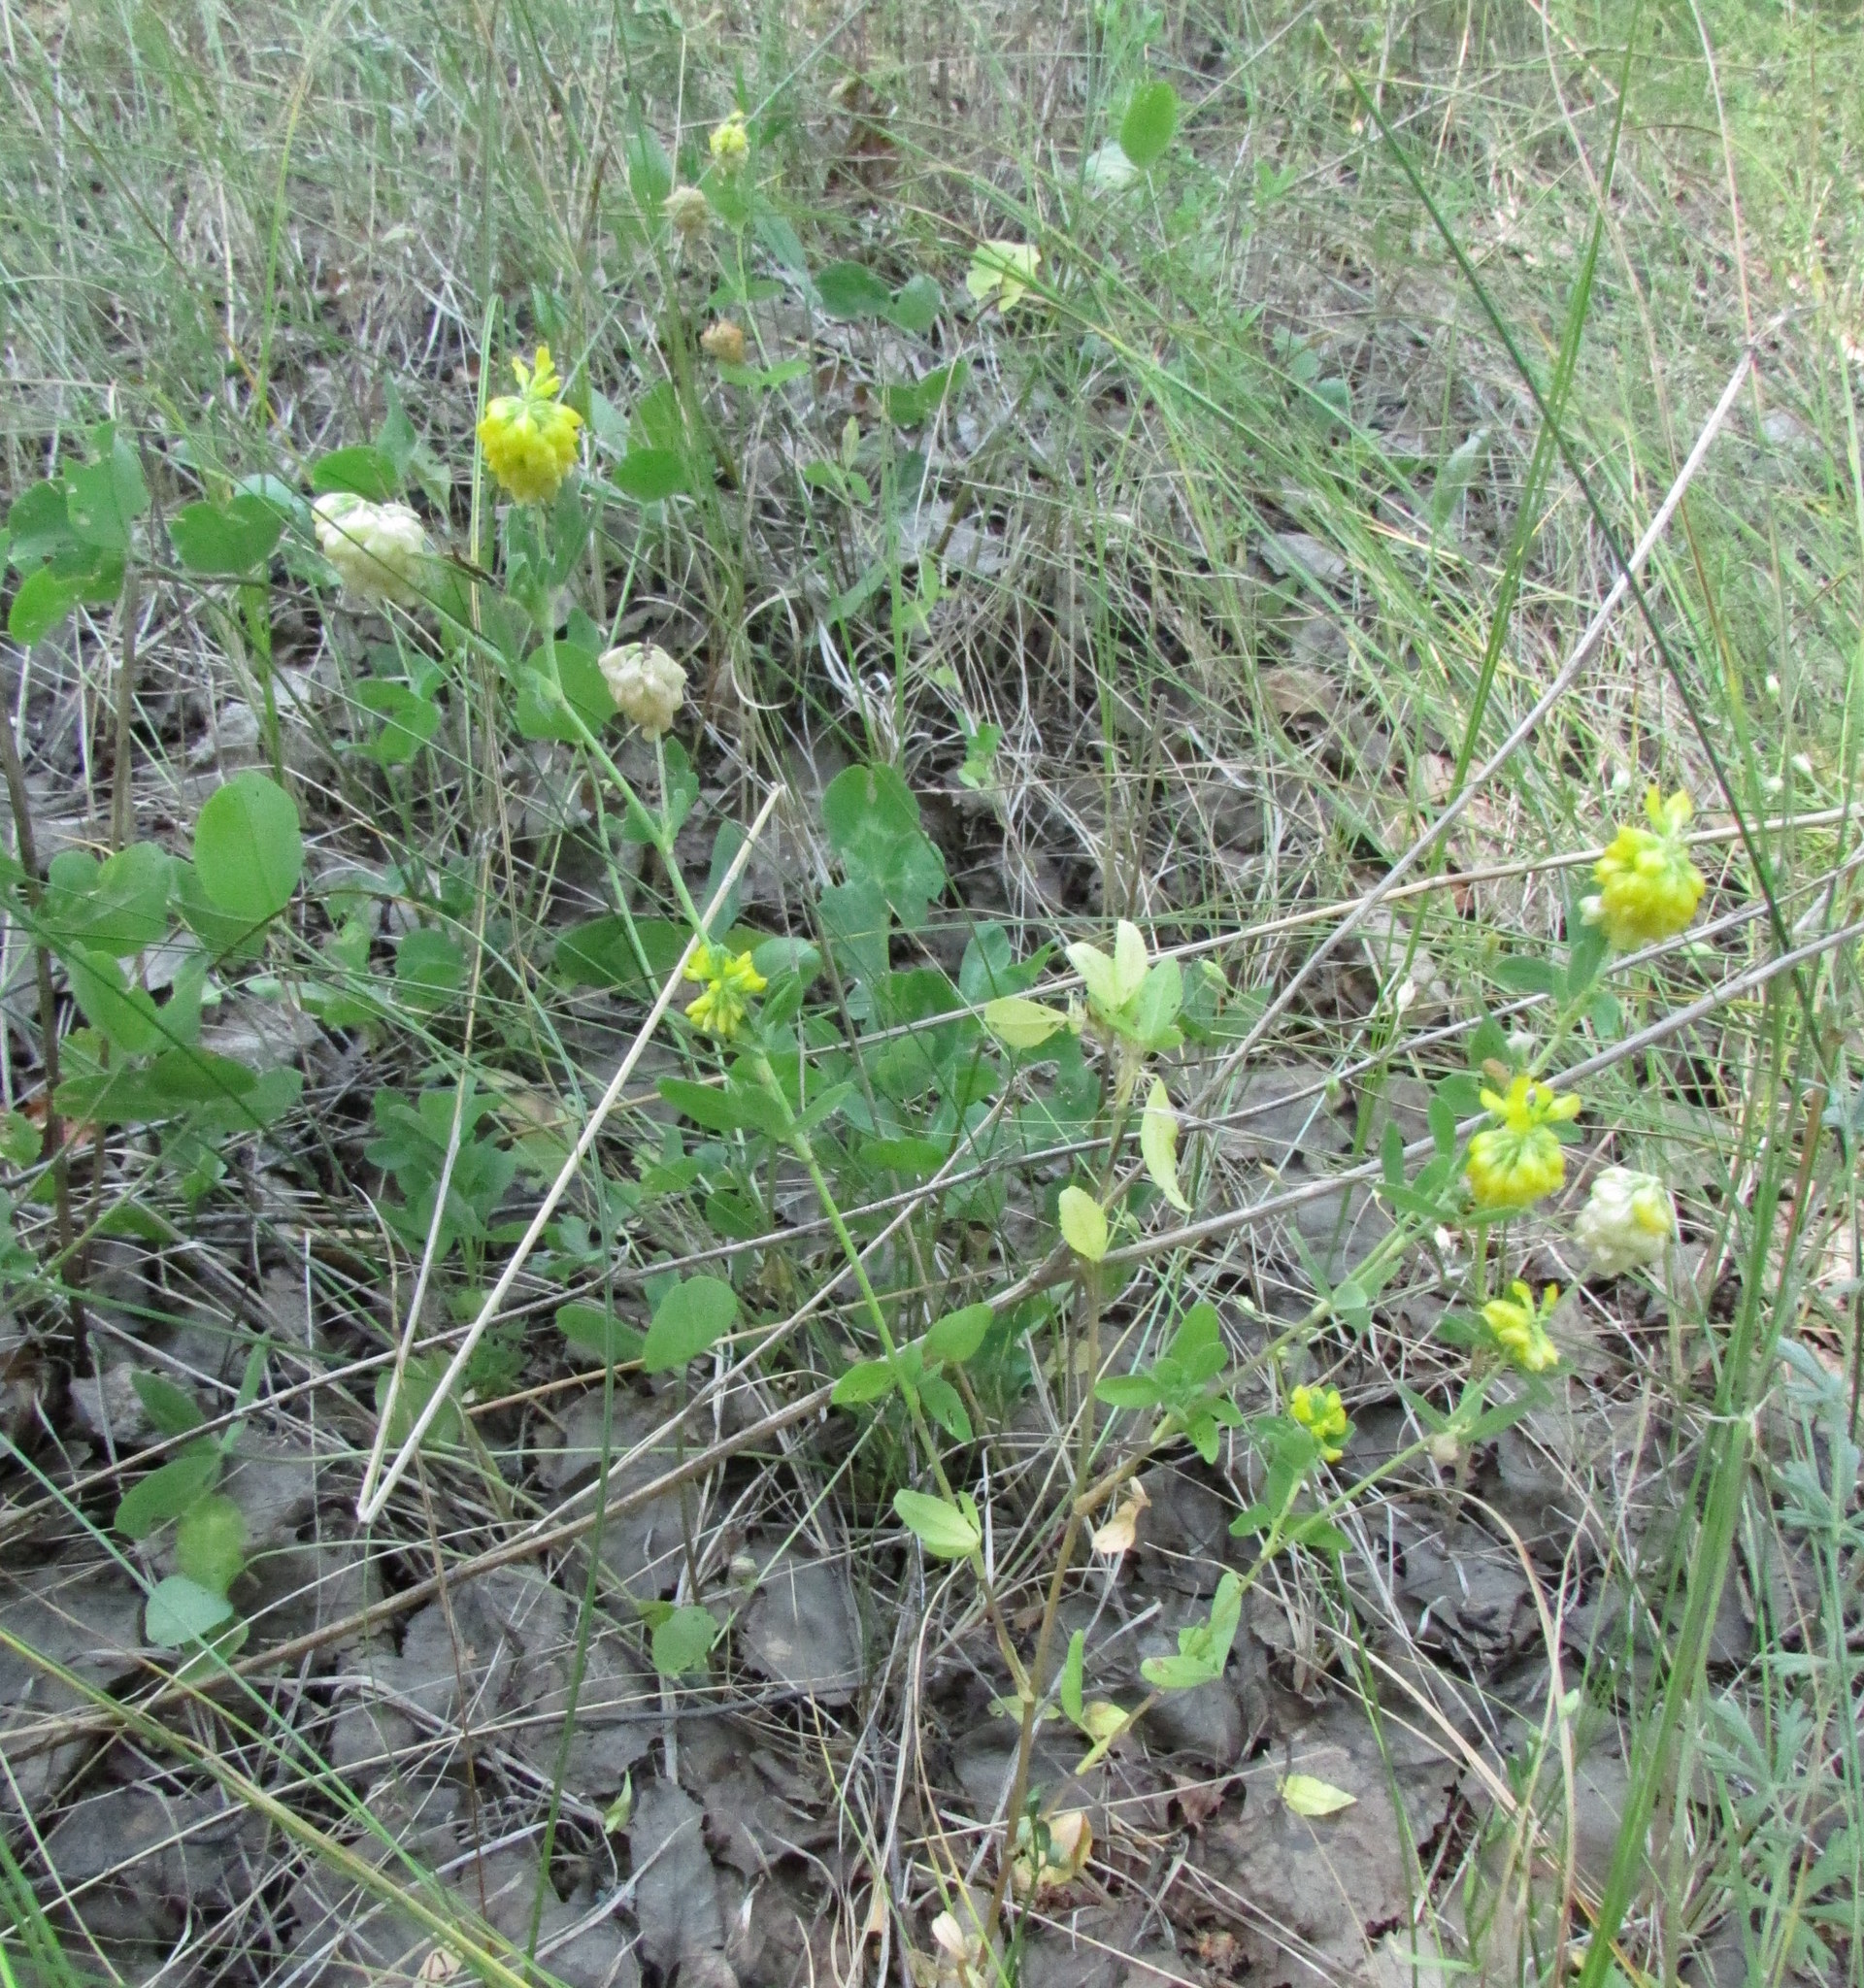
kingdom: Plantae
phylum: Tracheophyta
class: Magnoliopsida
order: Fabales
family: Fabaceae
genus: Trifolium
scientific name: Trifolium aureum
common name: Golden clover
